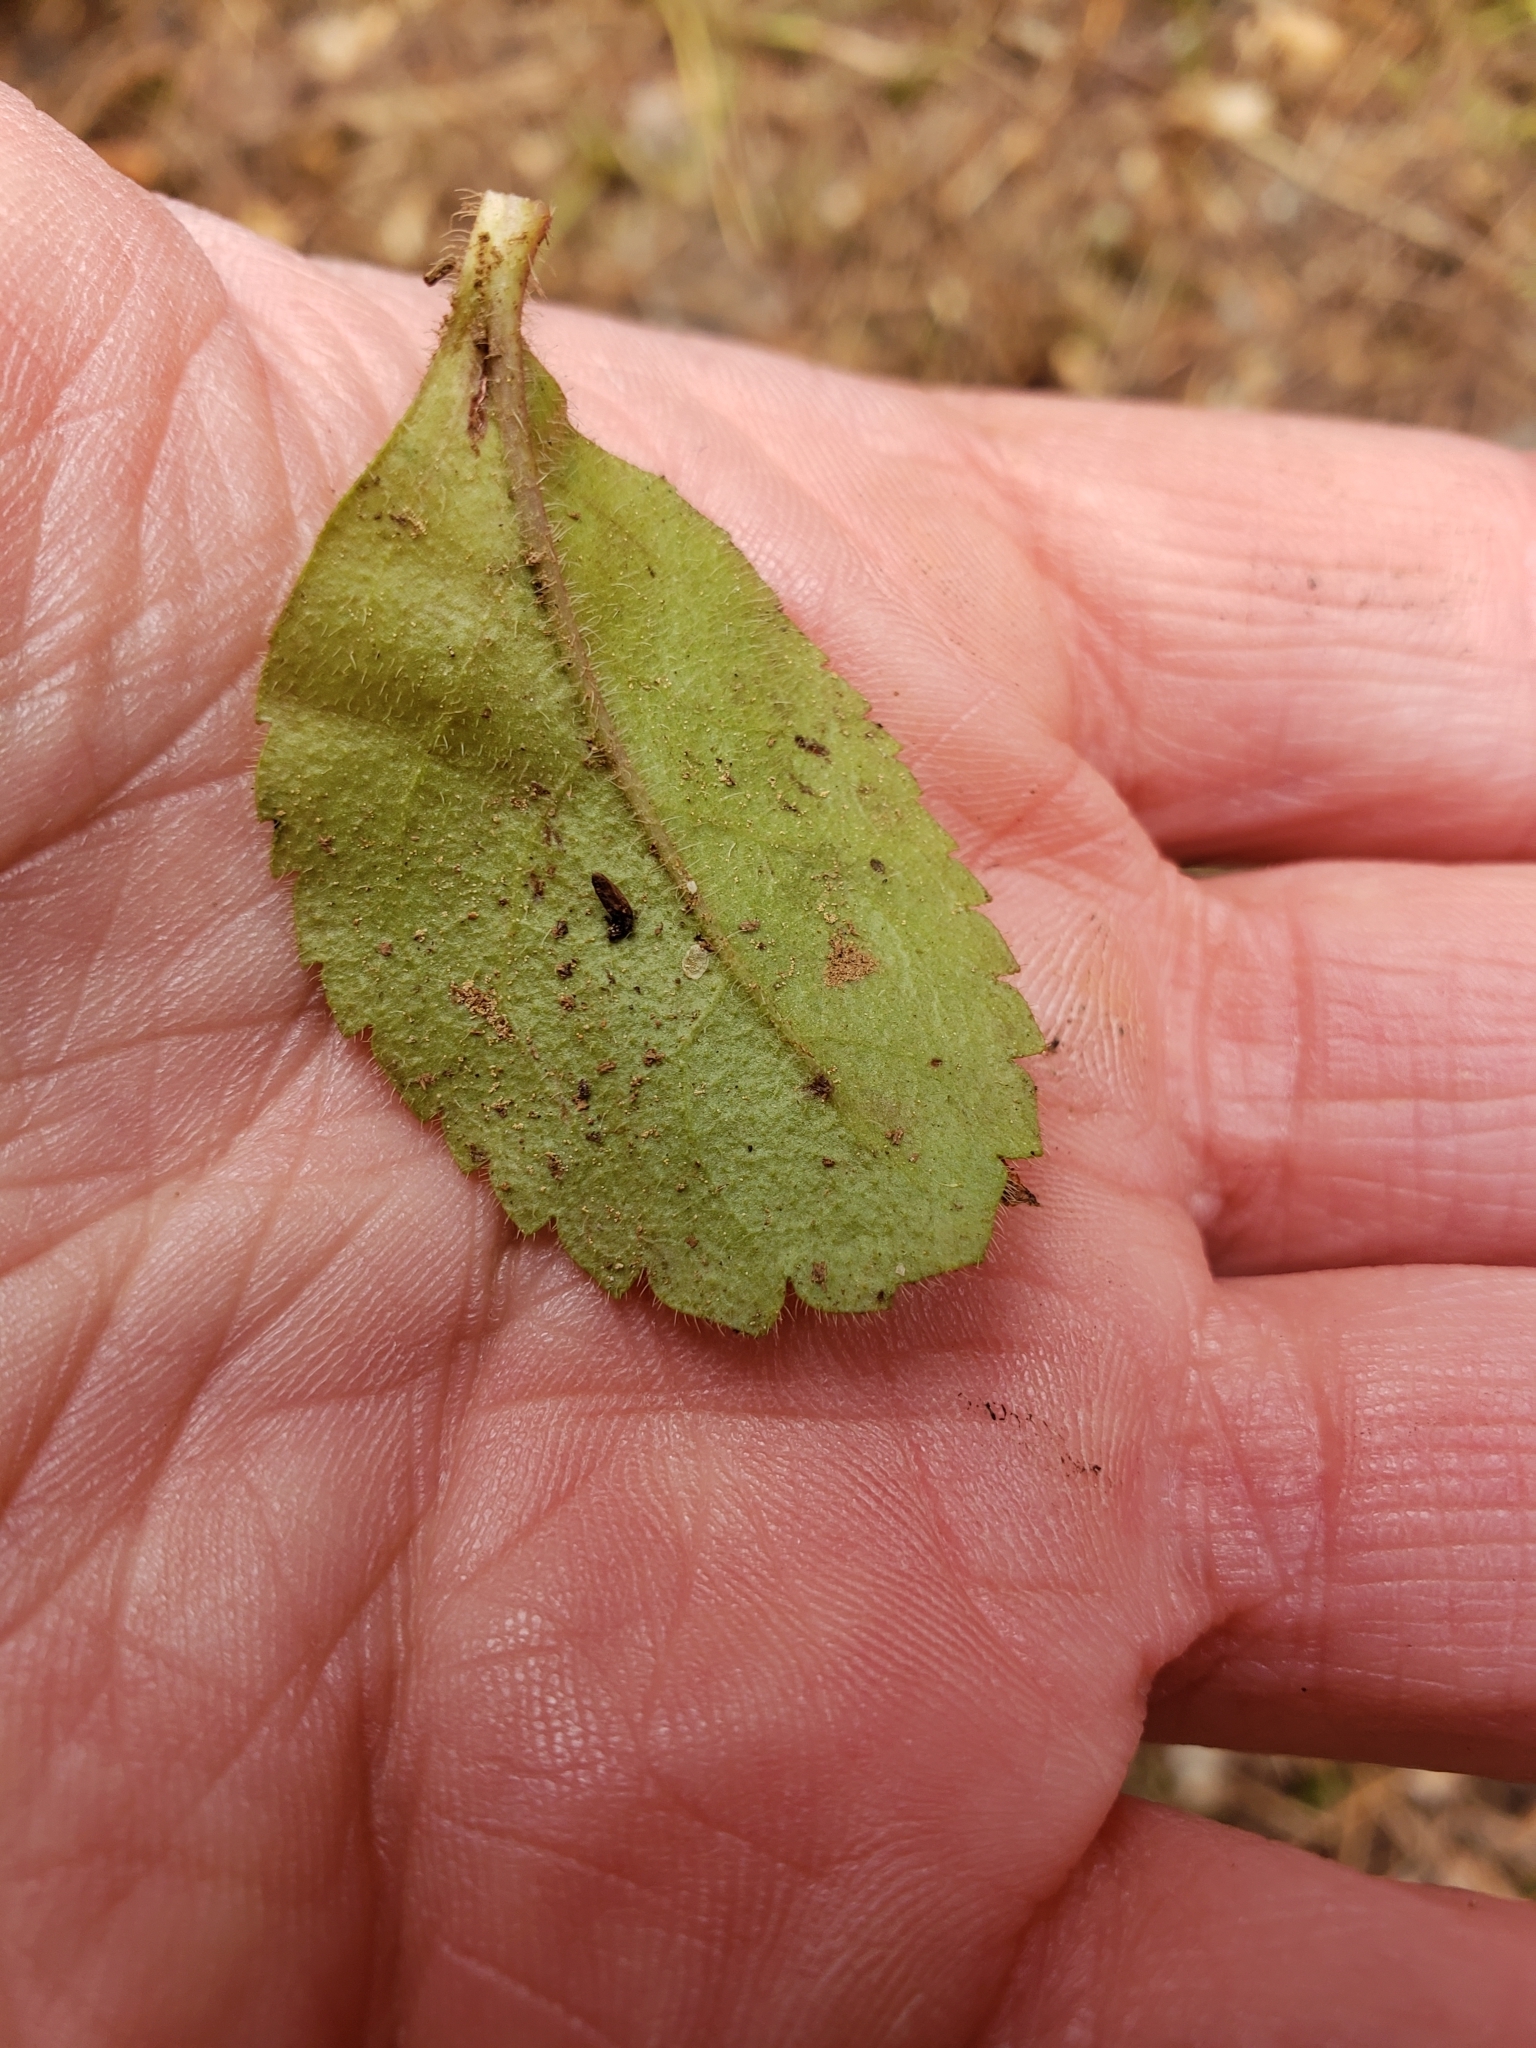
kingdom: Plantae
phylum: Tracheophyta
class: Magnoliopsida
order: Lamiales
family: Plantaginaceae
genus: Veronica
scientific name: Veronica officinalis
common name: Common speedwell
